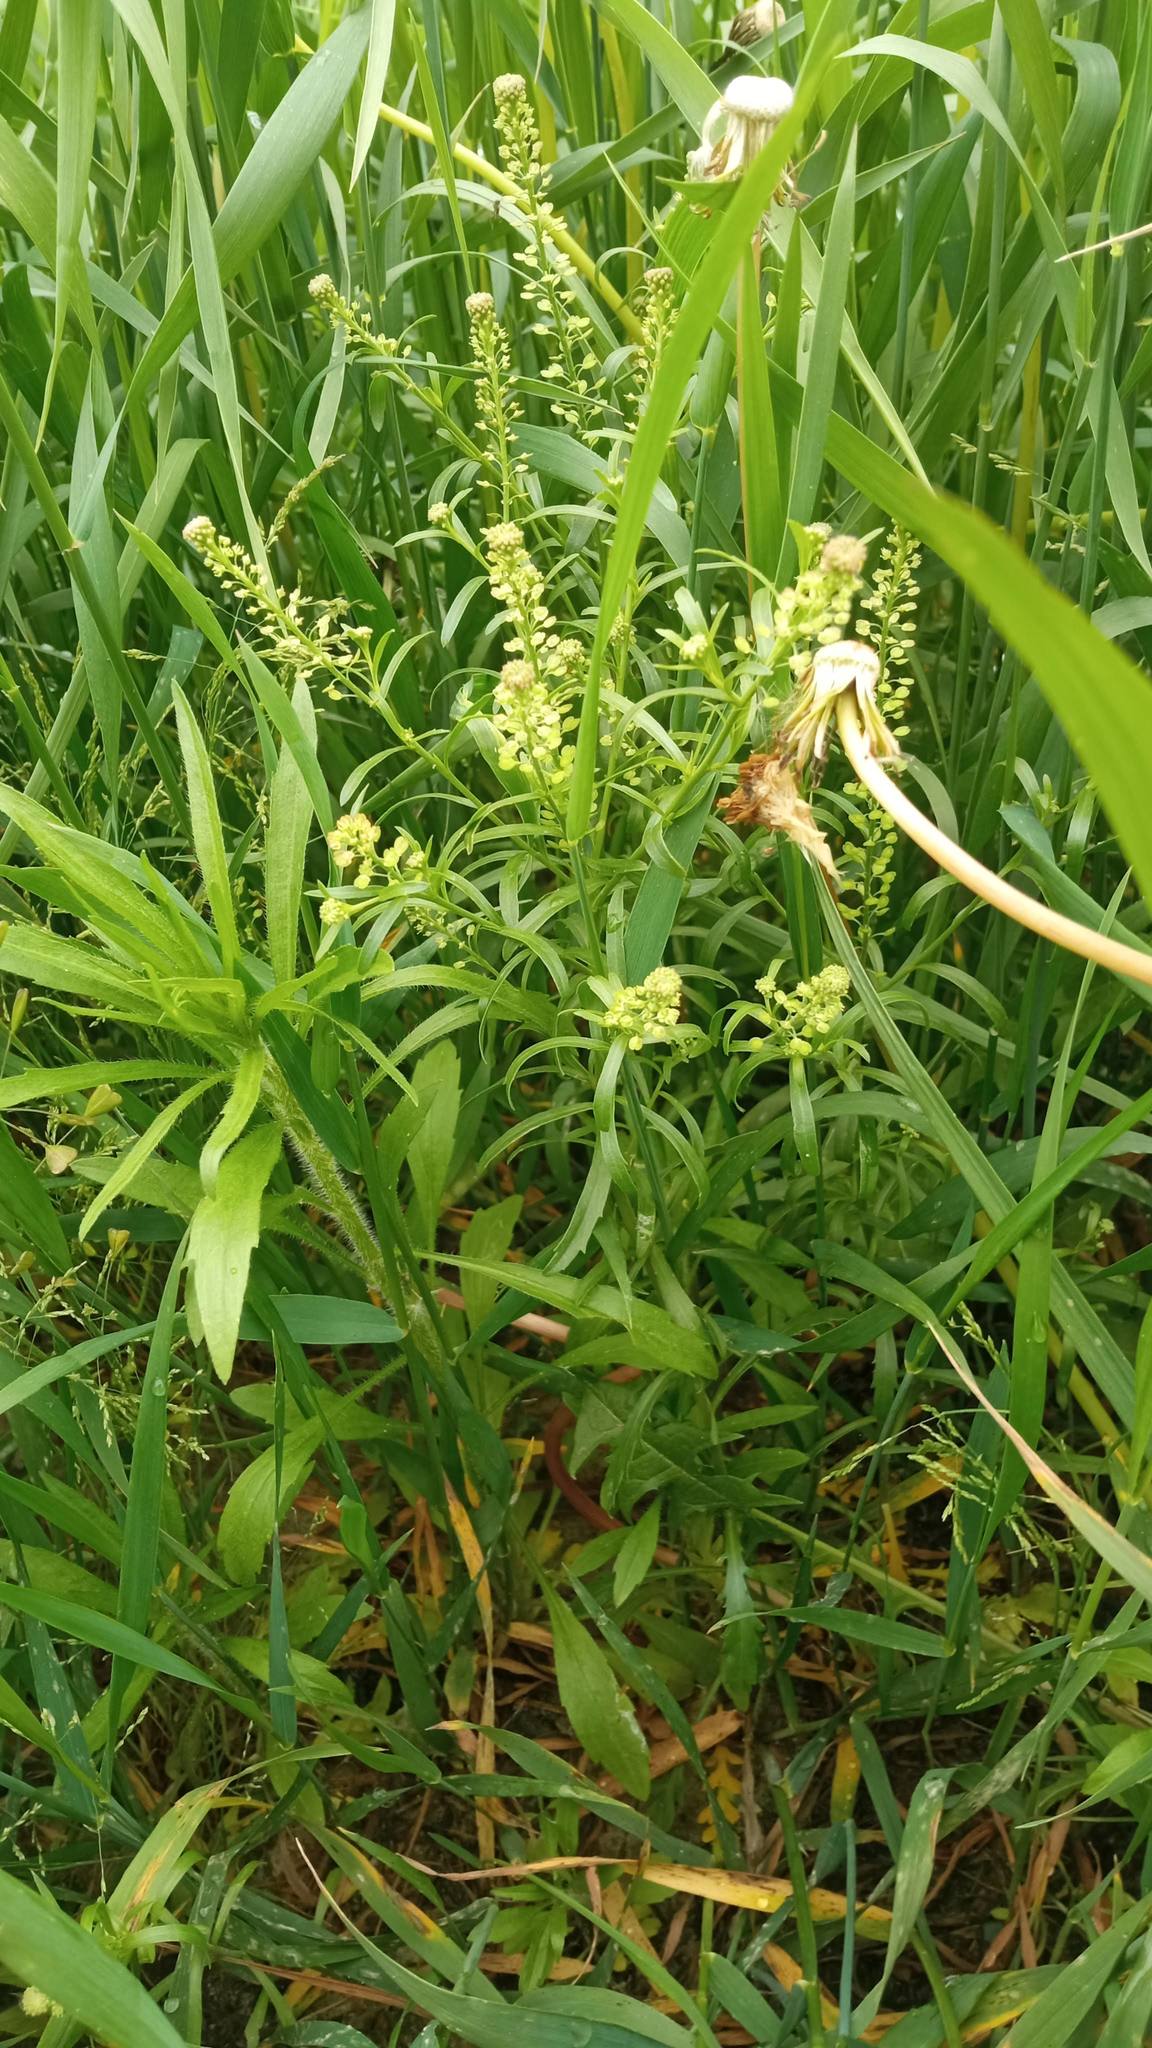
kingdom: Plantae
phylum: Tracheophyta
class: Magnoliopsida
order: Brassicales
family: Brassicaceae
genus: Lepidium
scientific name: Lepidium densiflorum
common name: Miner's pepperwort
